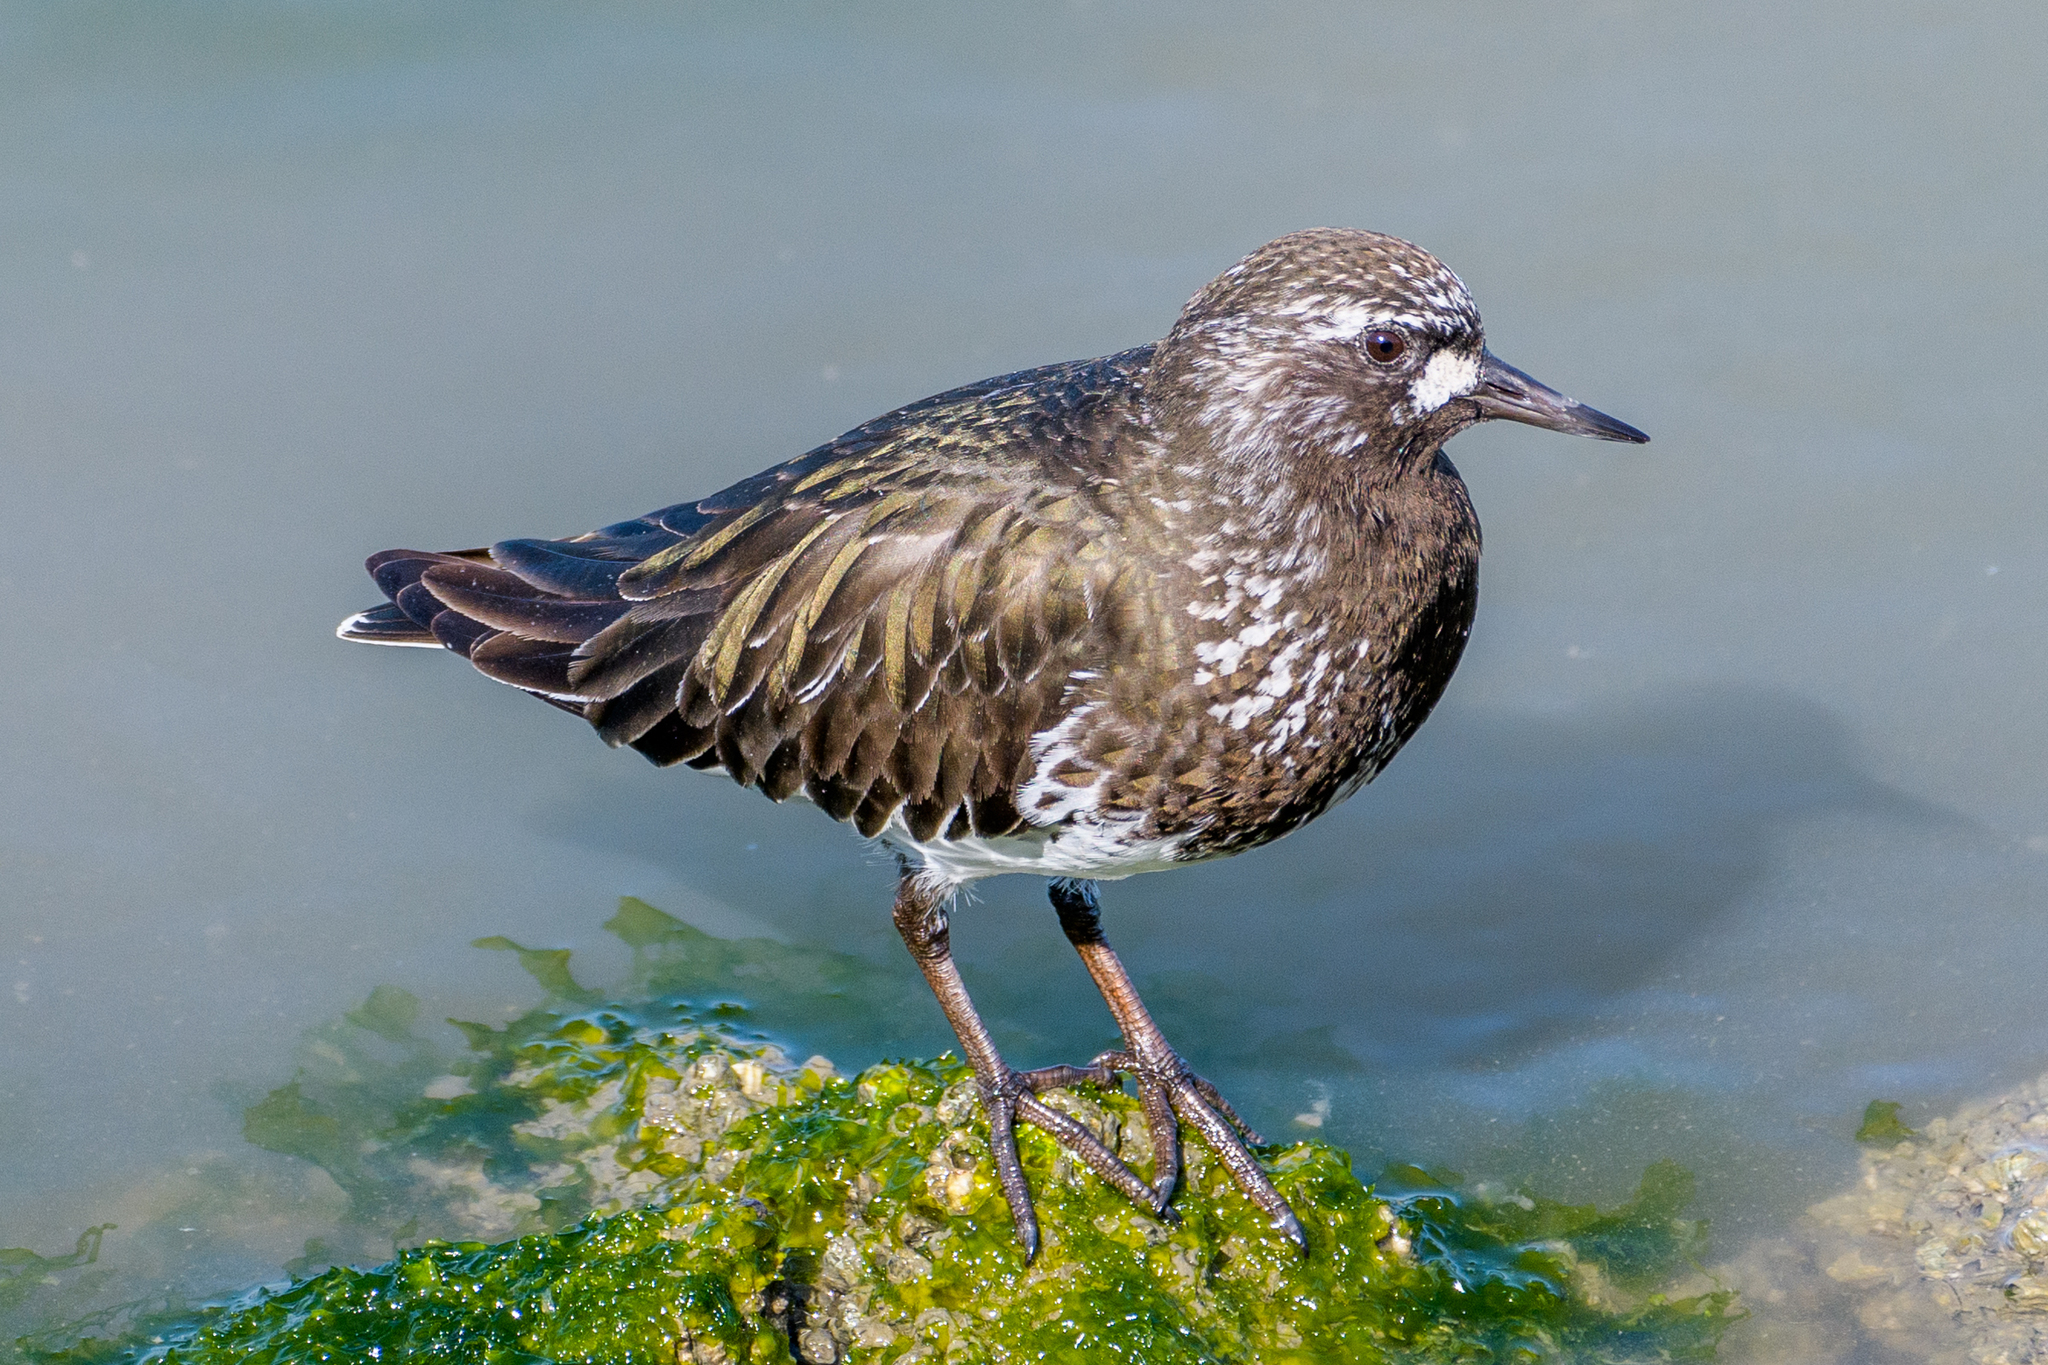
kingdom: Animalia
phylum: Chordata
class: Aves
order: Charadriiformes
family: Scolopacidae
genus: Arenaria
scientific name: Arenaria melanocephala
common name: Black turnstone
